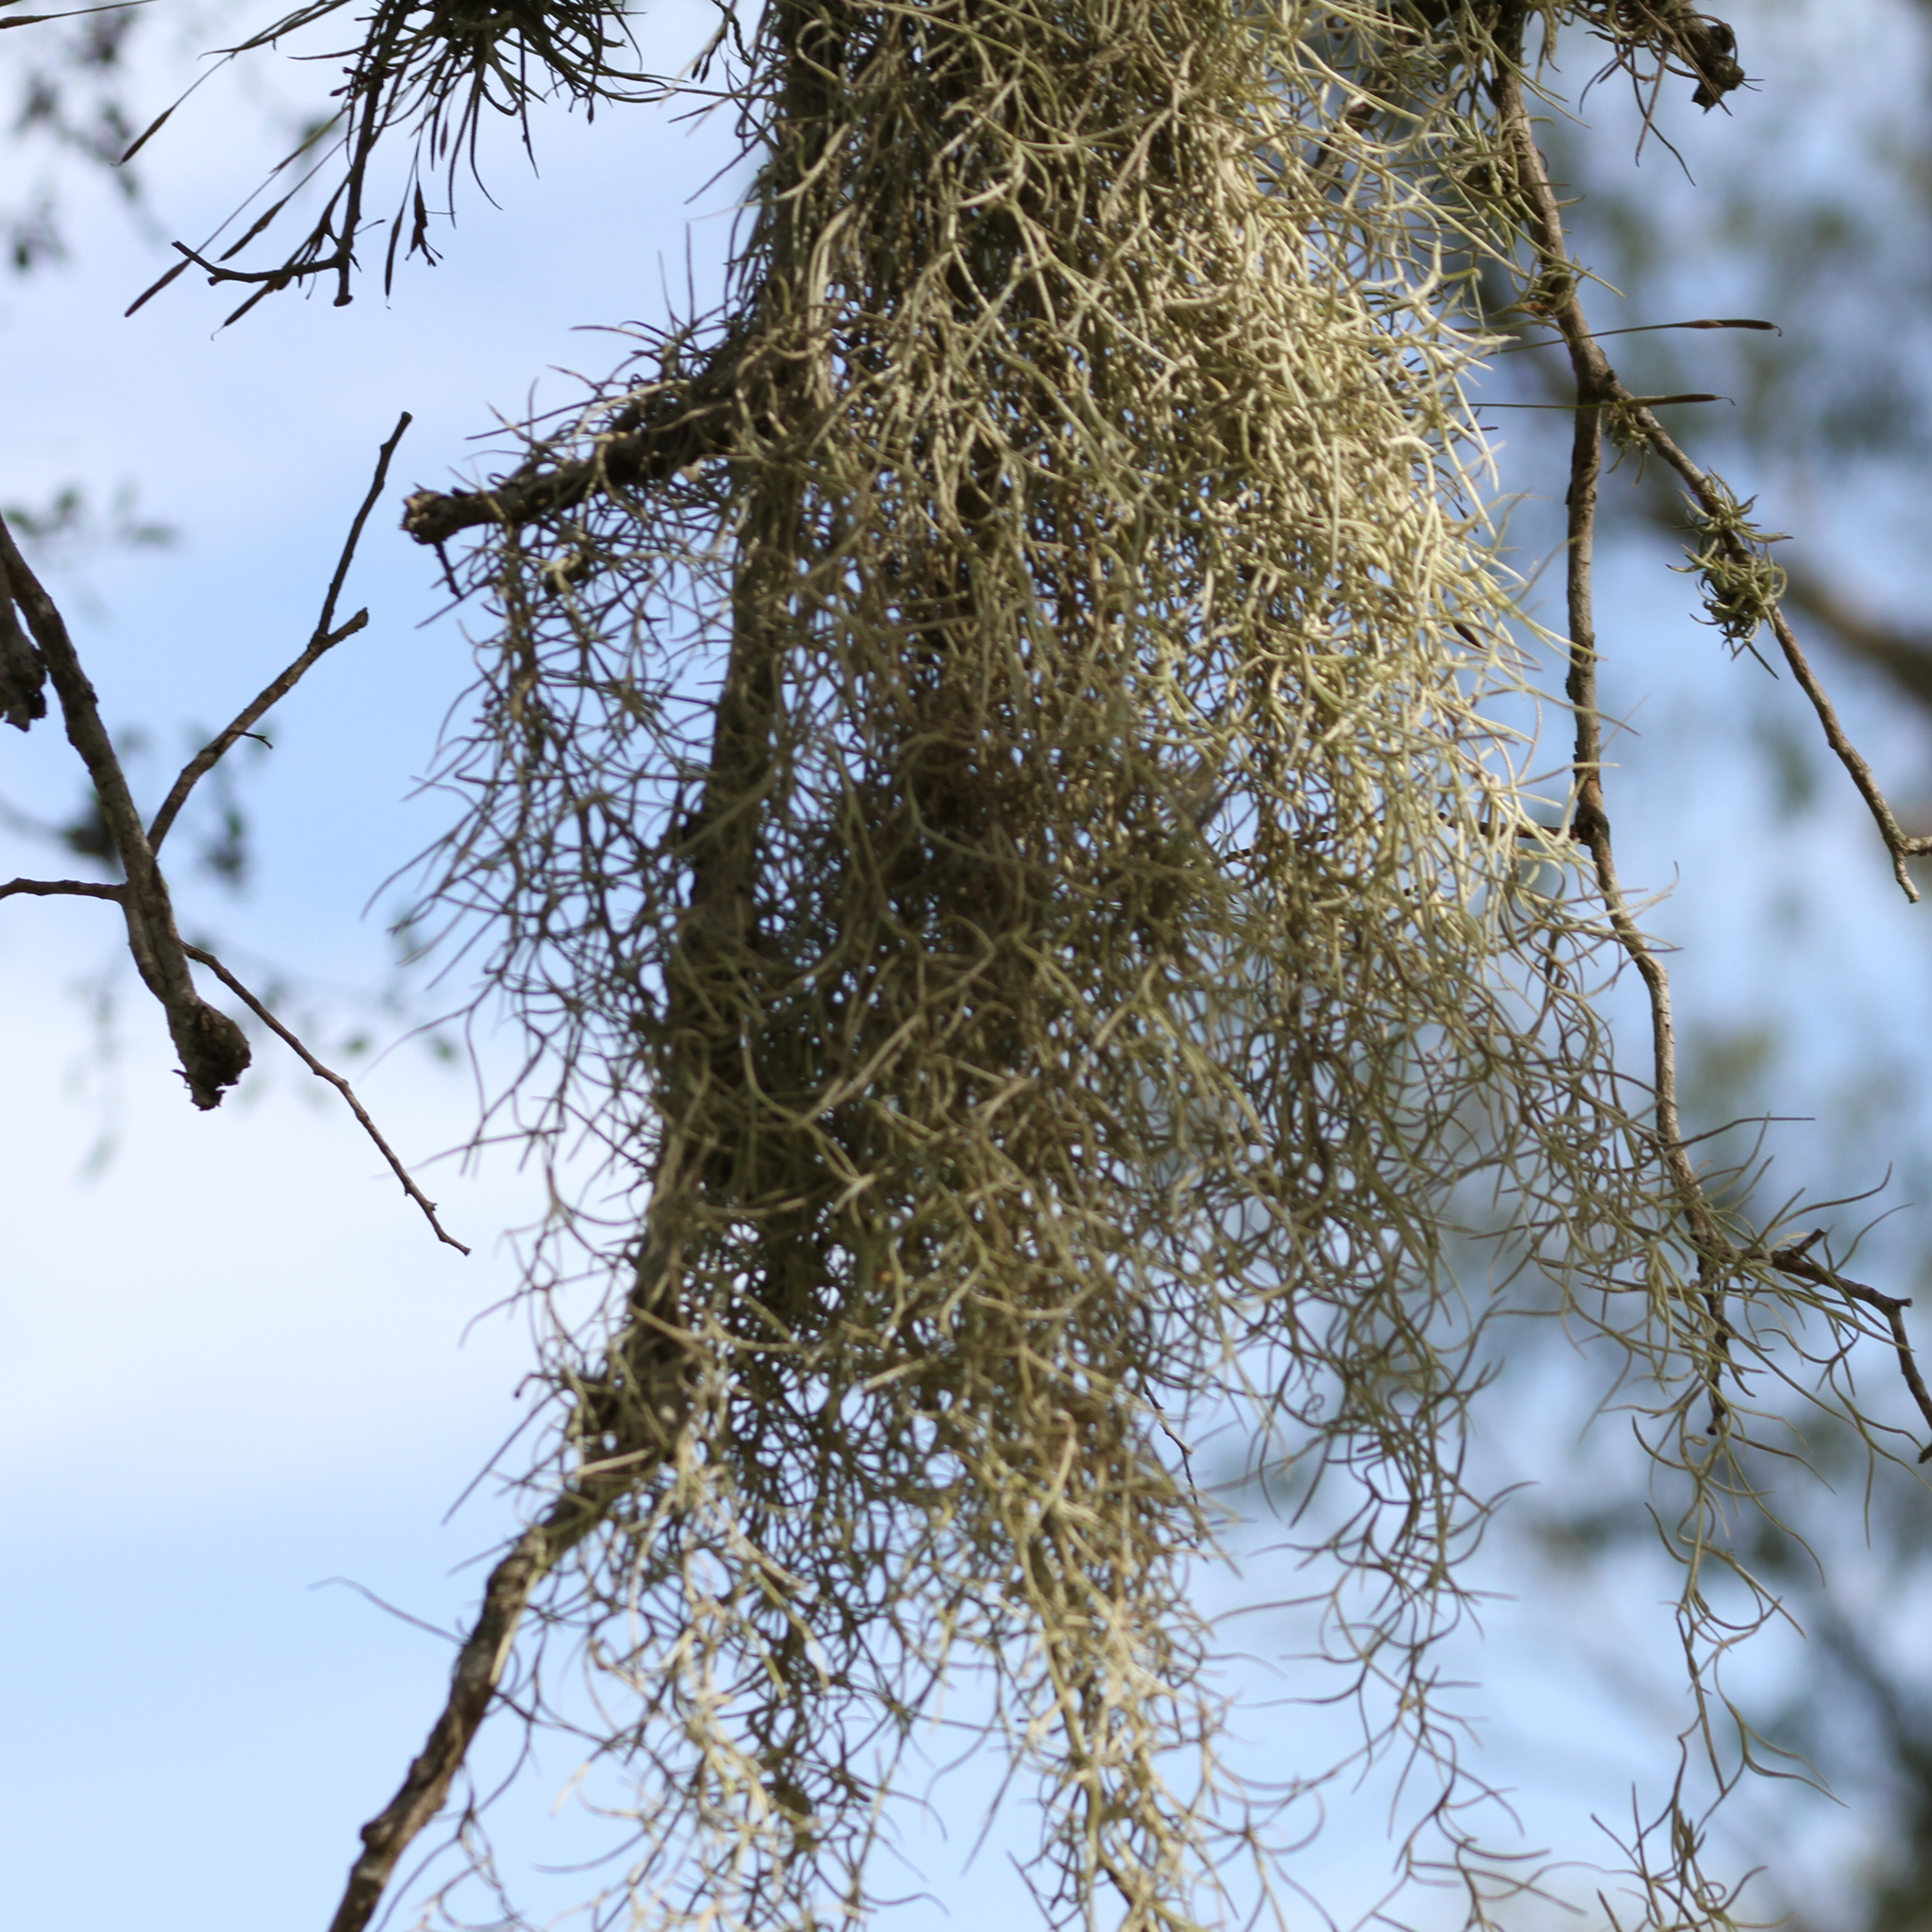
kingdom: Plantae
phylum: Tracheophyta
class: Liliopsida
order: Poales
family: Bromeliaceae
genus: Tillandsia
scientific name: Tillandsia usneoides
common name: Spanish moss
